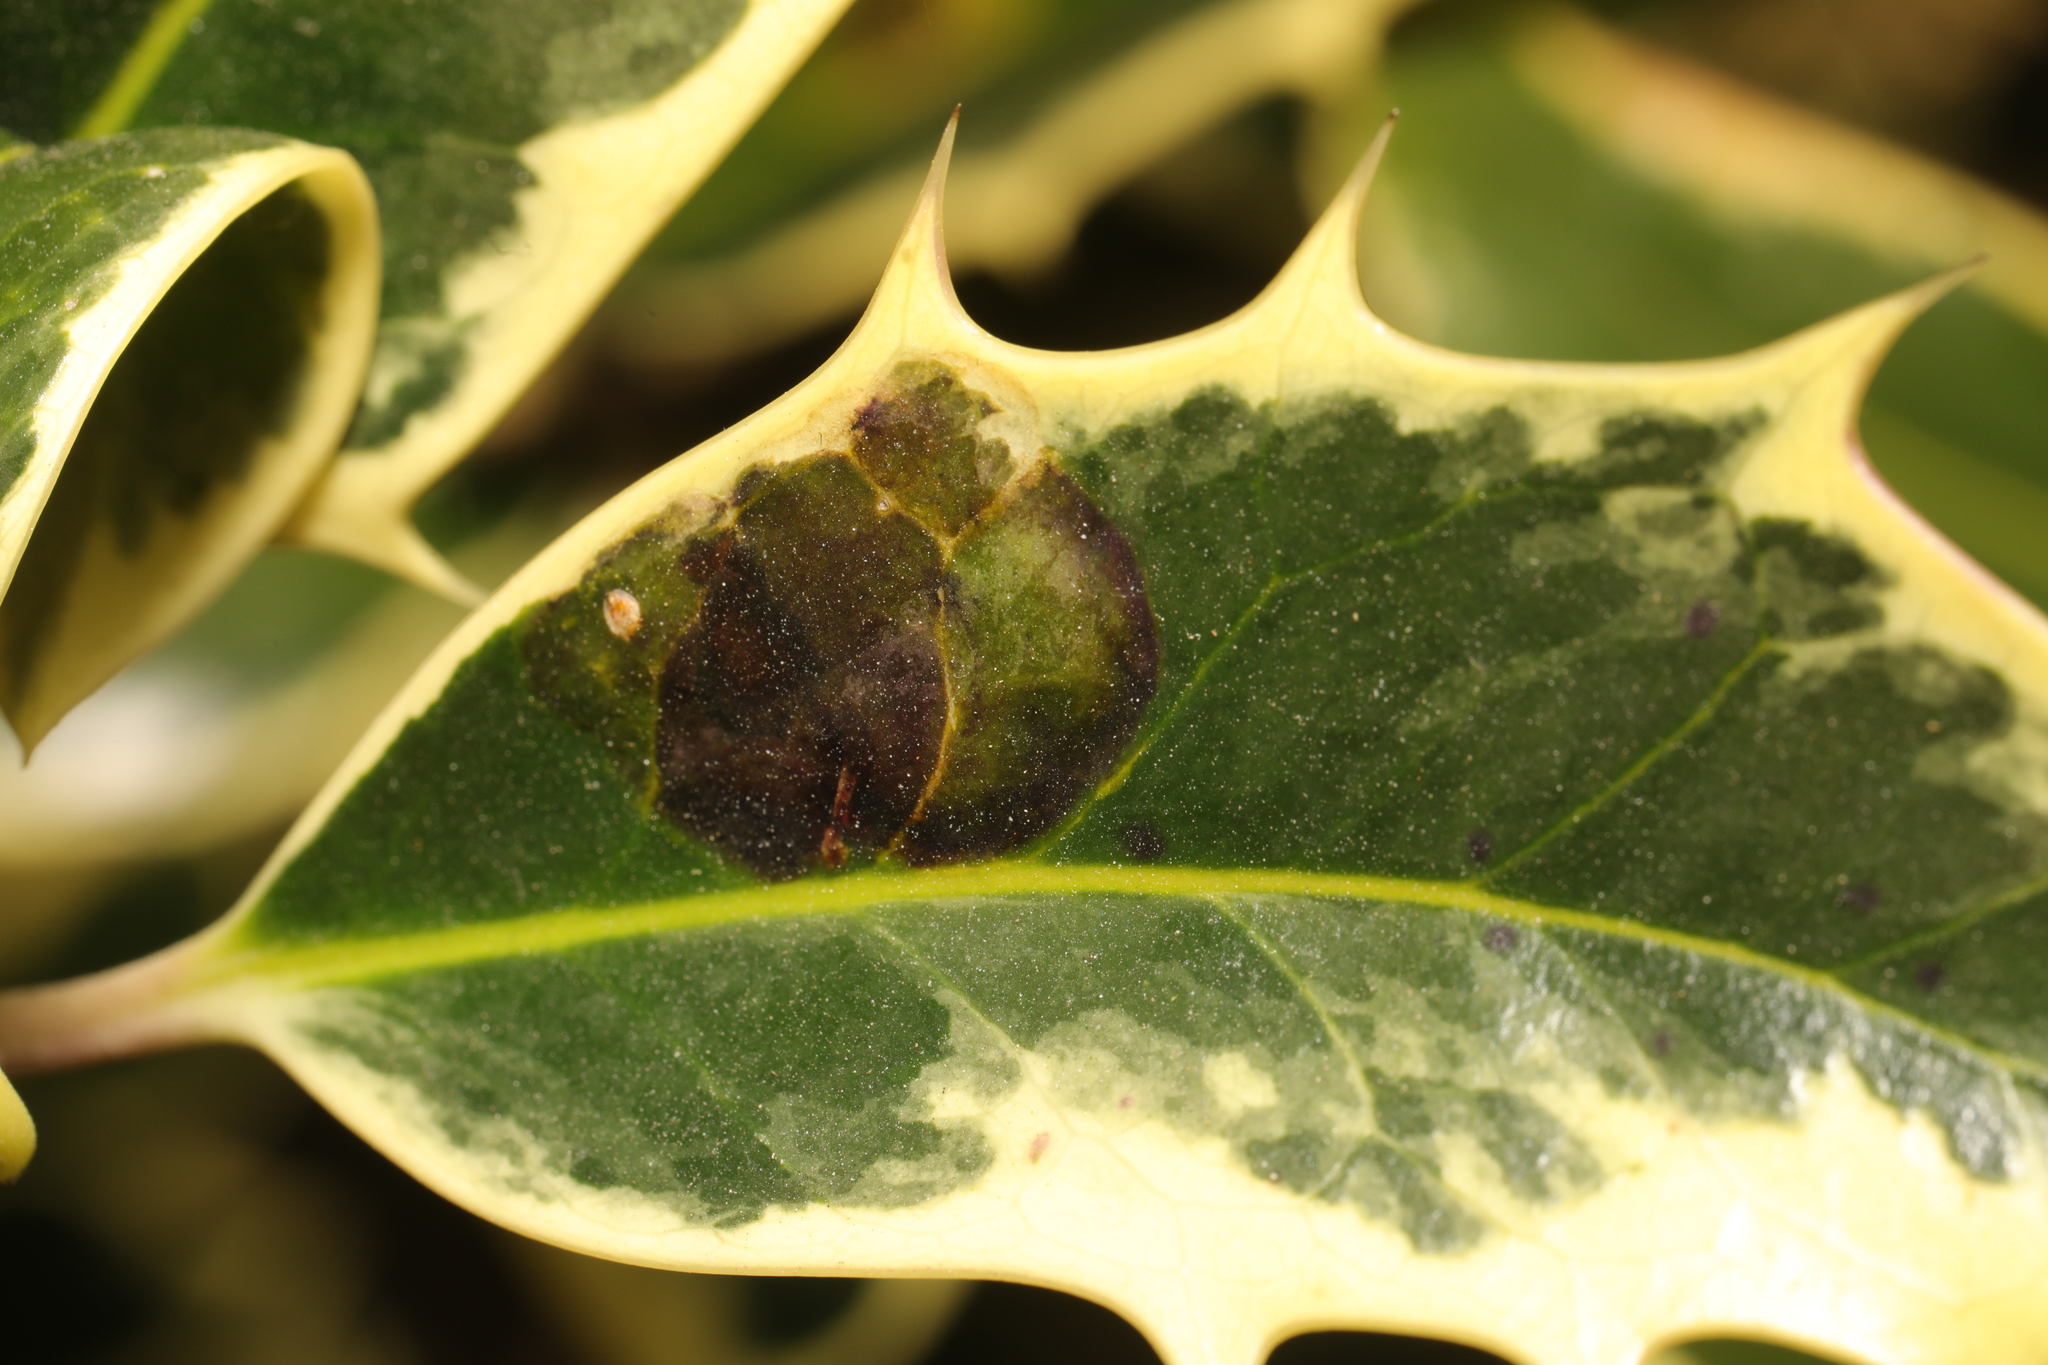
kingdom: Animalia
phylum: Arthropoda
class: Insecta
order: Diptera
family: Agromyzidae
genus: Phytomyza
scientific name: Phytomyza ilicis
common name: Holly leafminer
